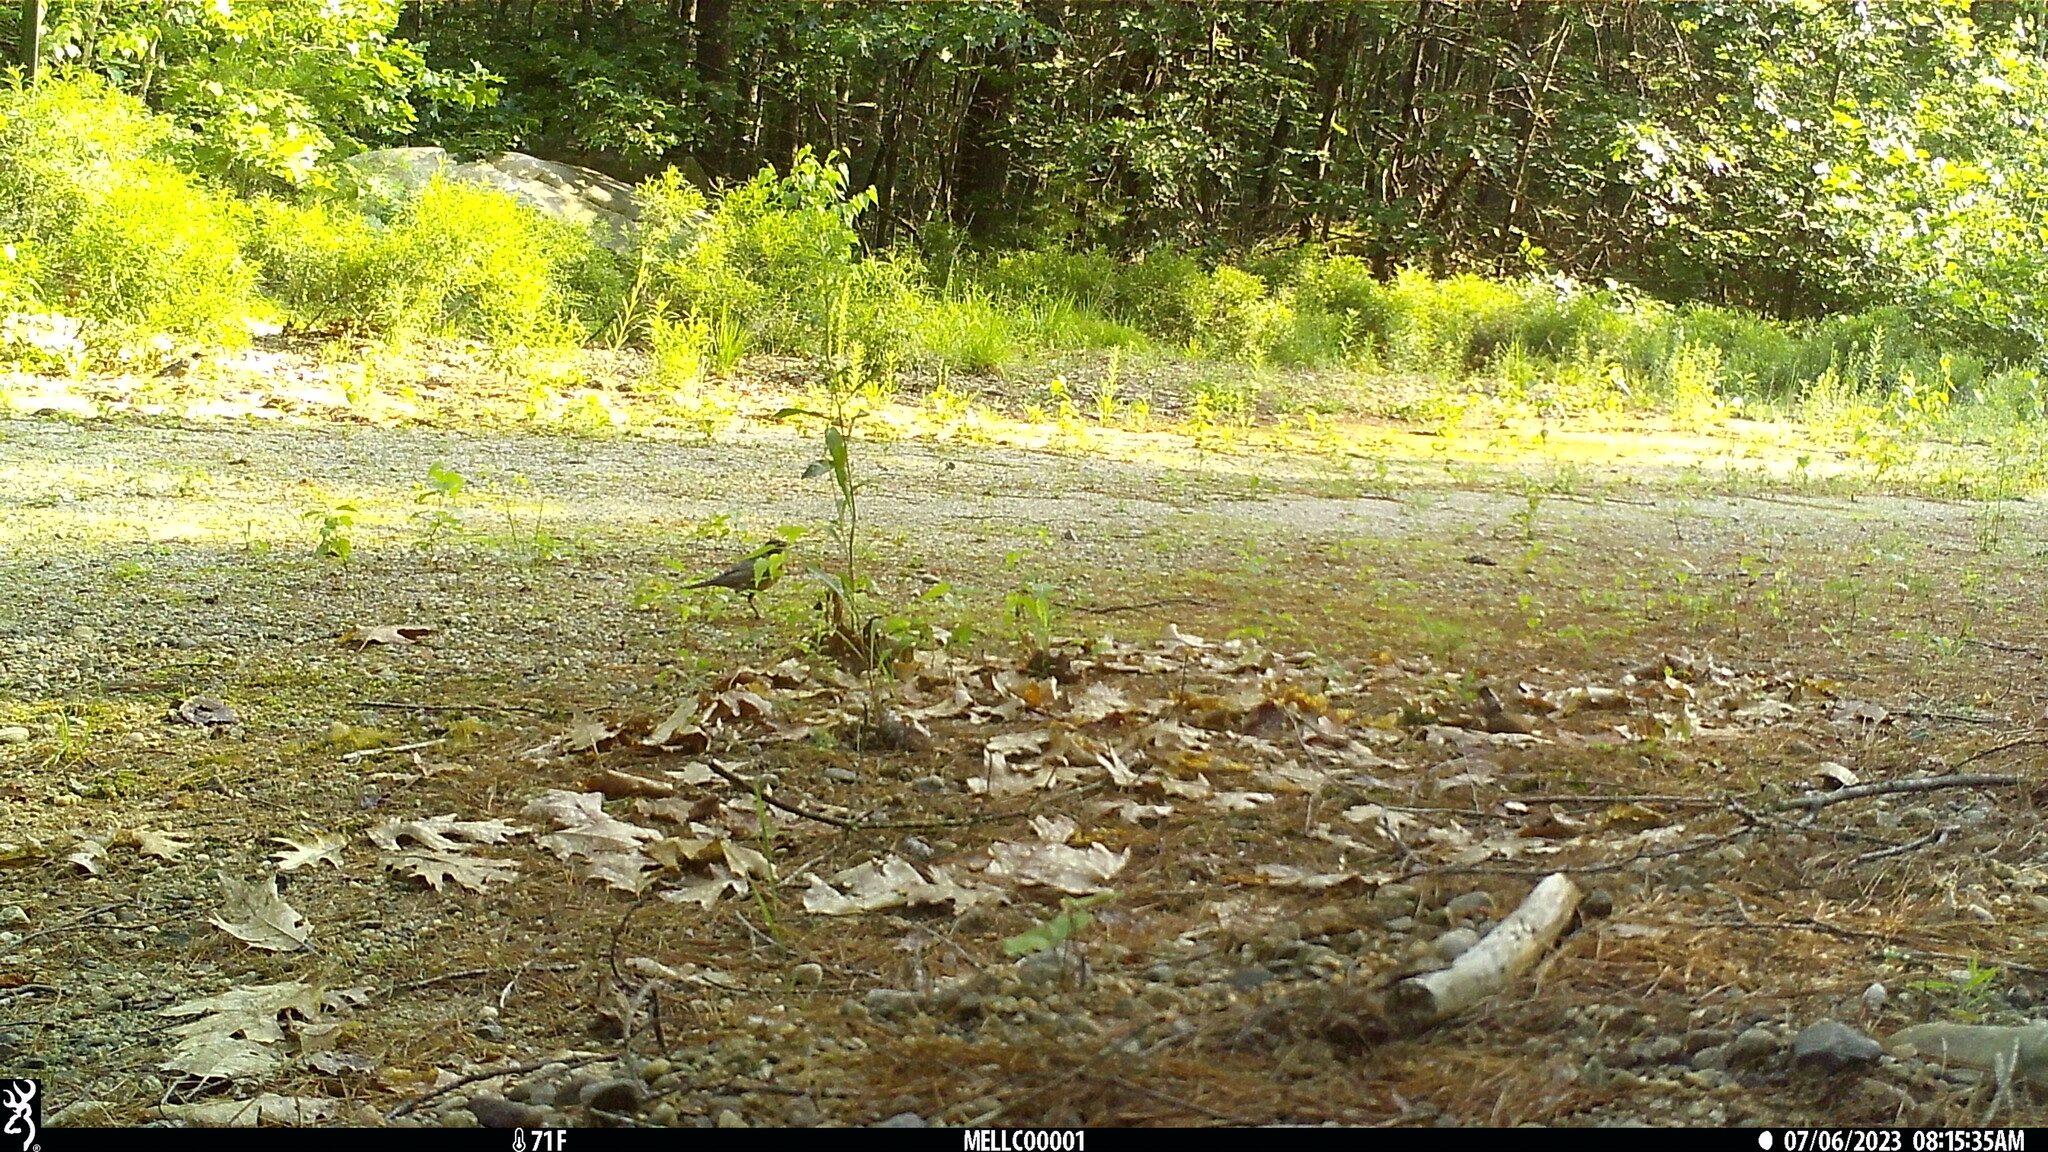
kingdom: Animalia
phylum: Chordata
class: Aves
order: Passeriformes
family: Turdidae
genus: Turdus
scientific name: Turdus migratorius
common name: American robin
